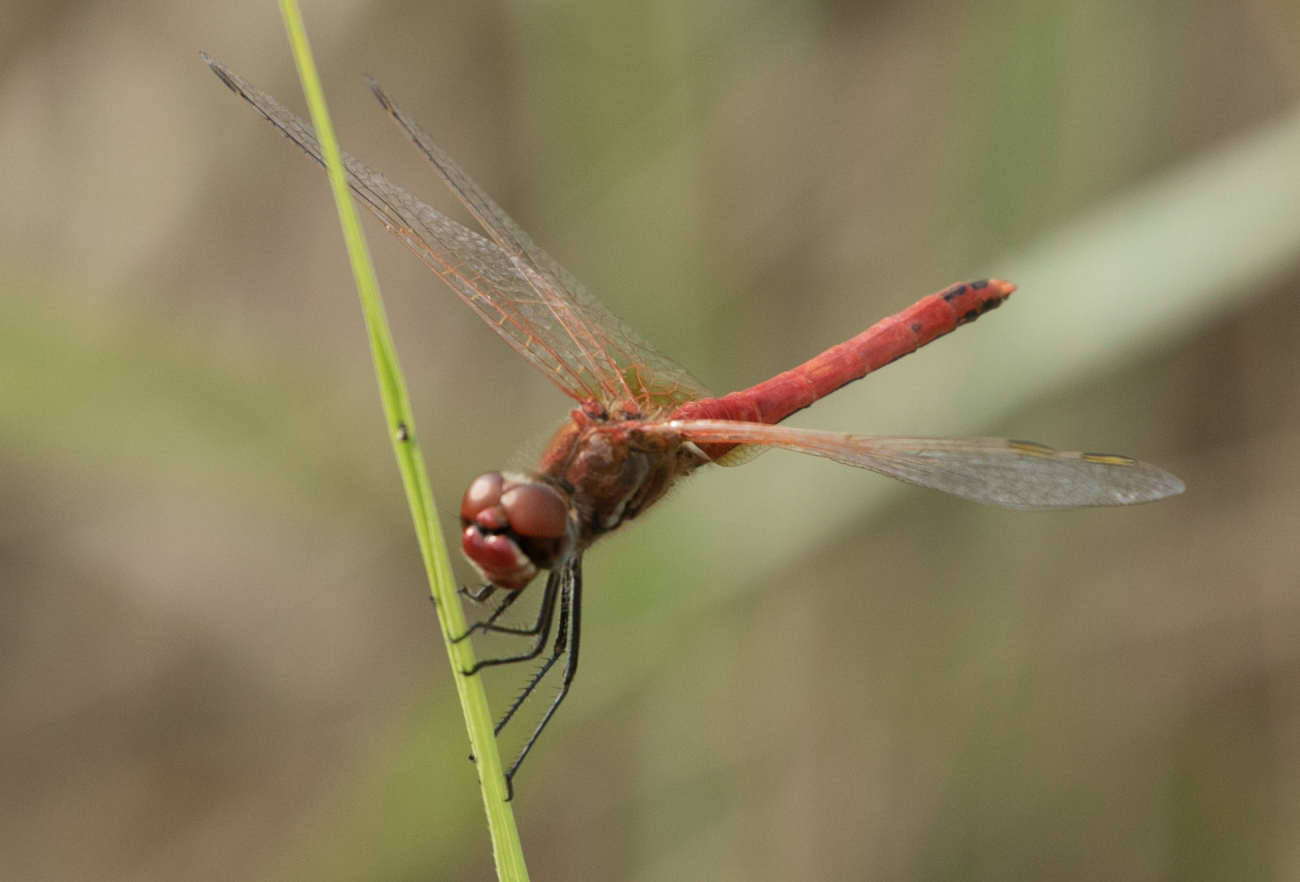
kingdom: Animalia
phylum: Arthropoda
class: Insecta
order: Odonata
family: Libellulidae
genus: Sympetrum
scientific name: Sympetrum fonscolombii
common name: Red-veined darter
